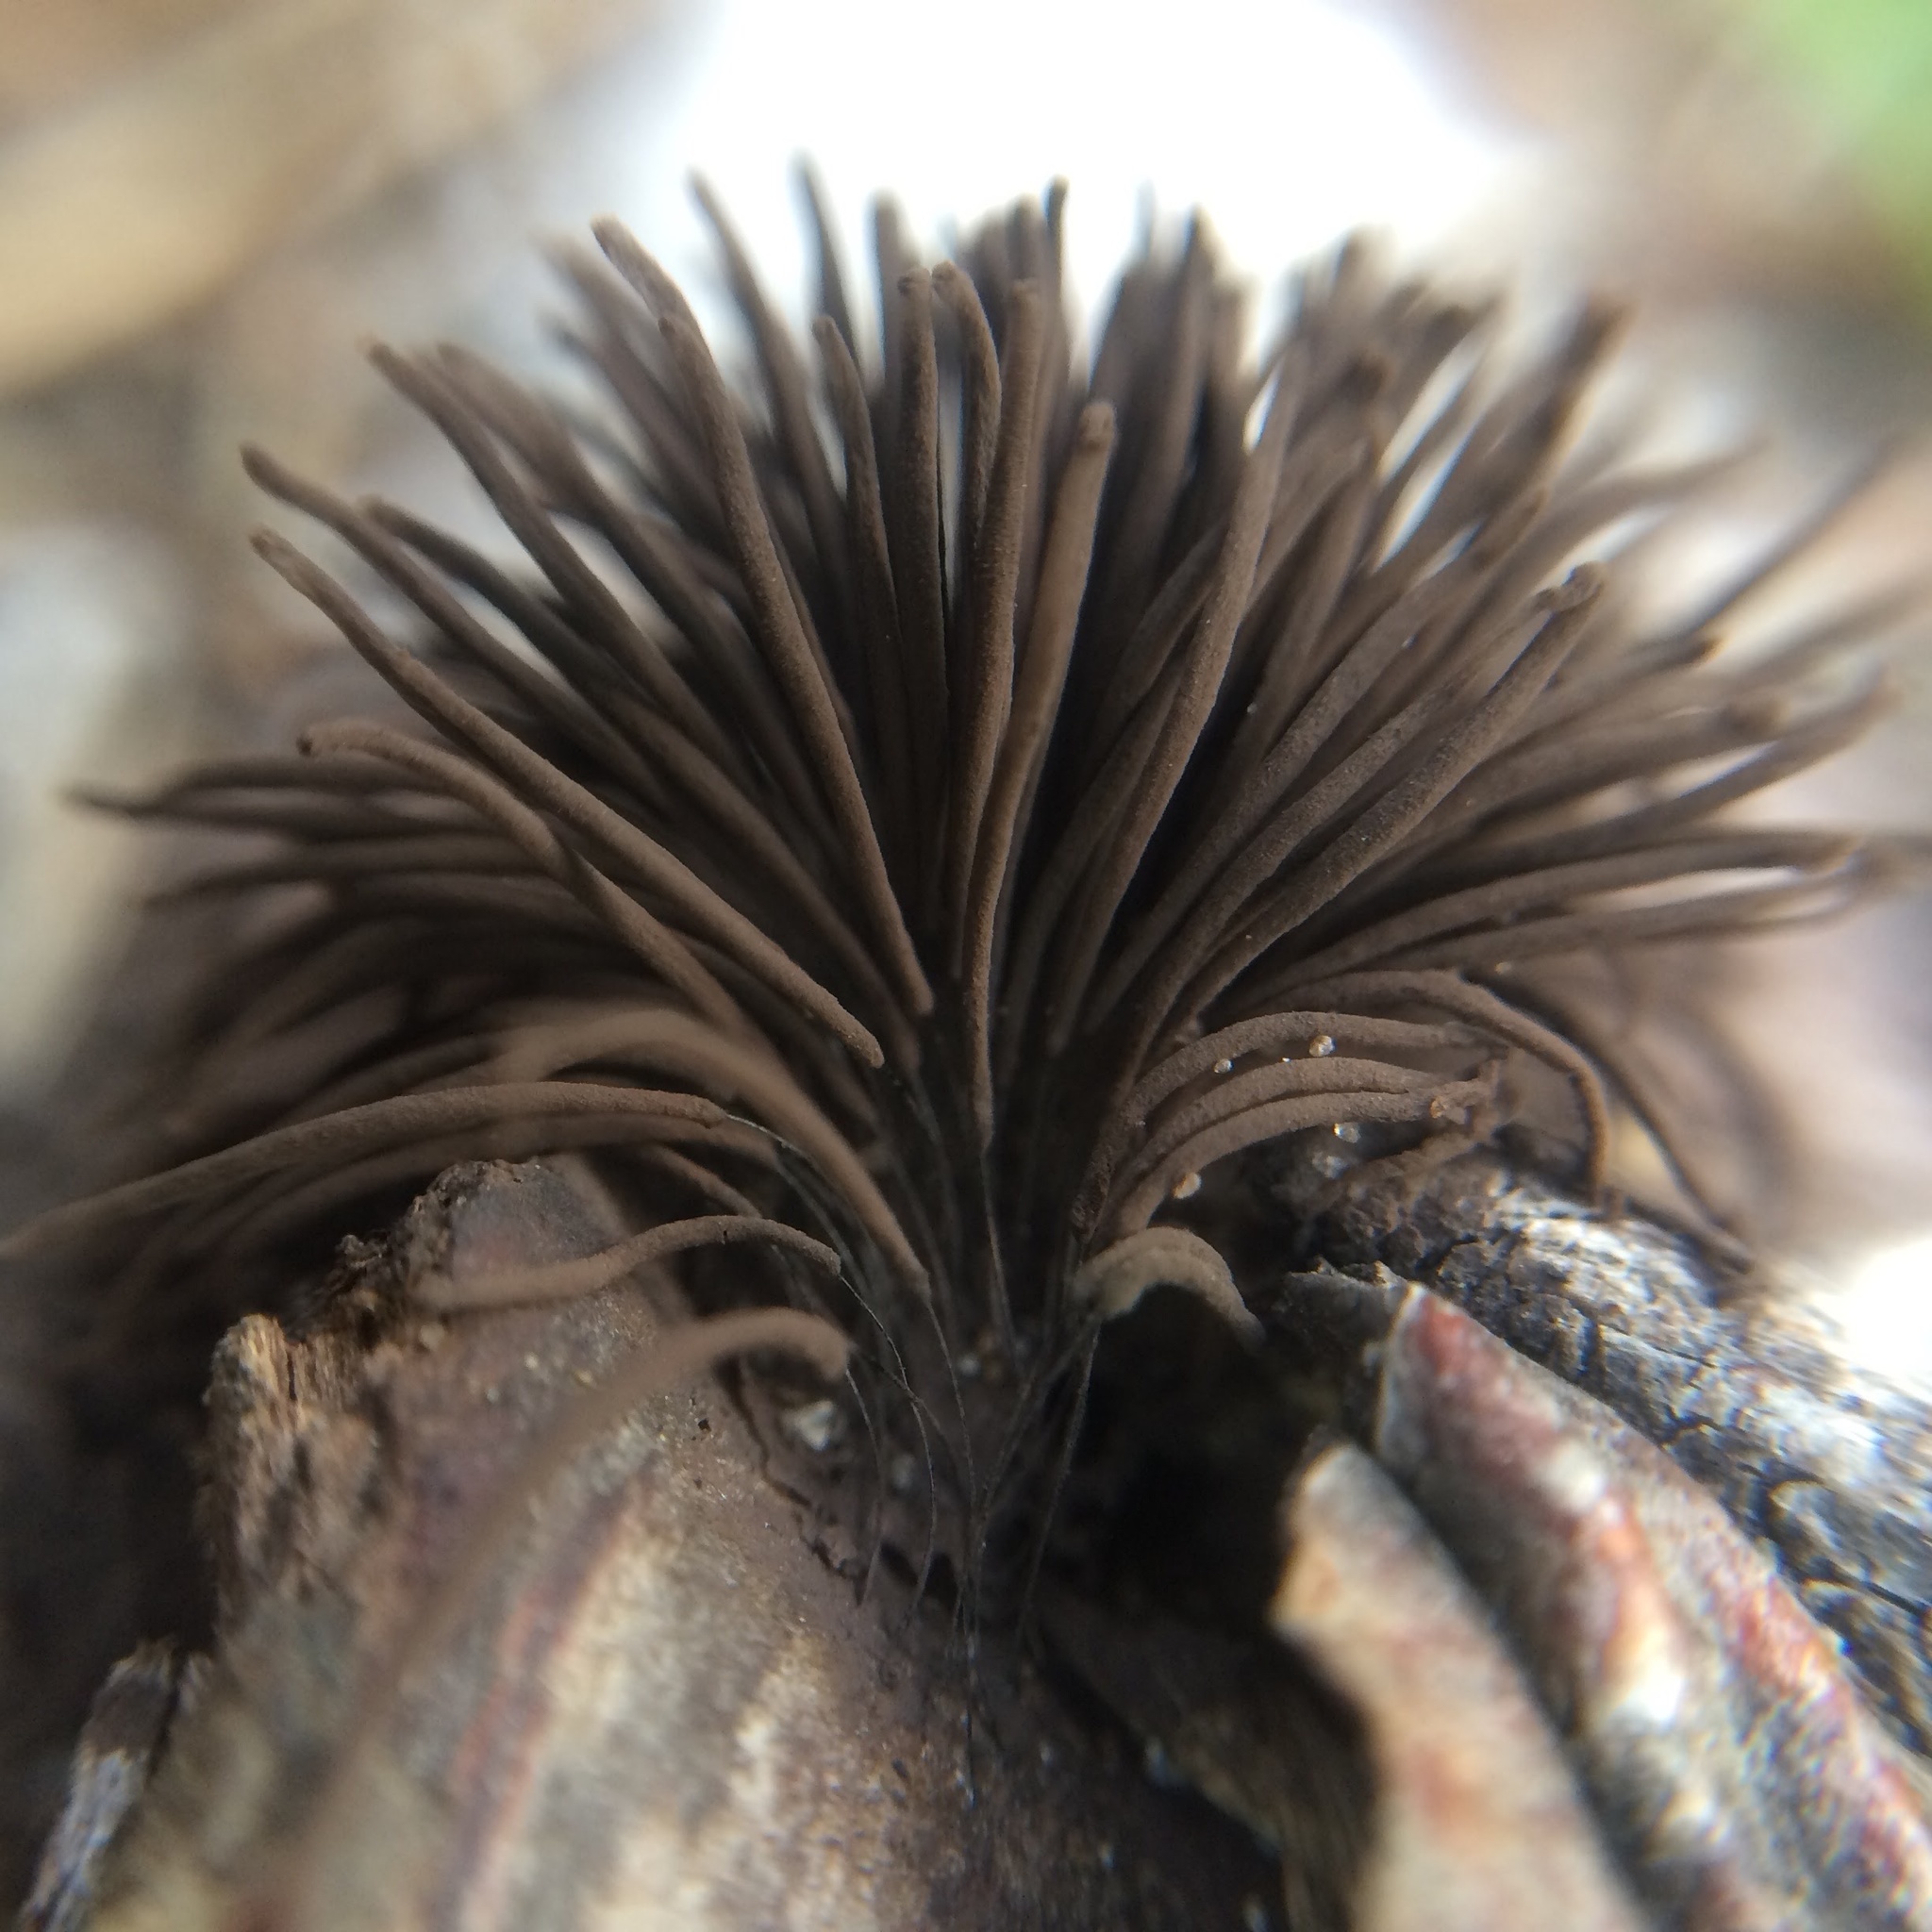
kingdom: Protozoa
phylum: Mycetozoa
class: Myxomycetes
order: Stemonitidales
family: Stemonitidaceae
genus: Stemonitis
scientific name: Stemonitis splendens
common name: Chocolate tube slime
